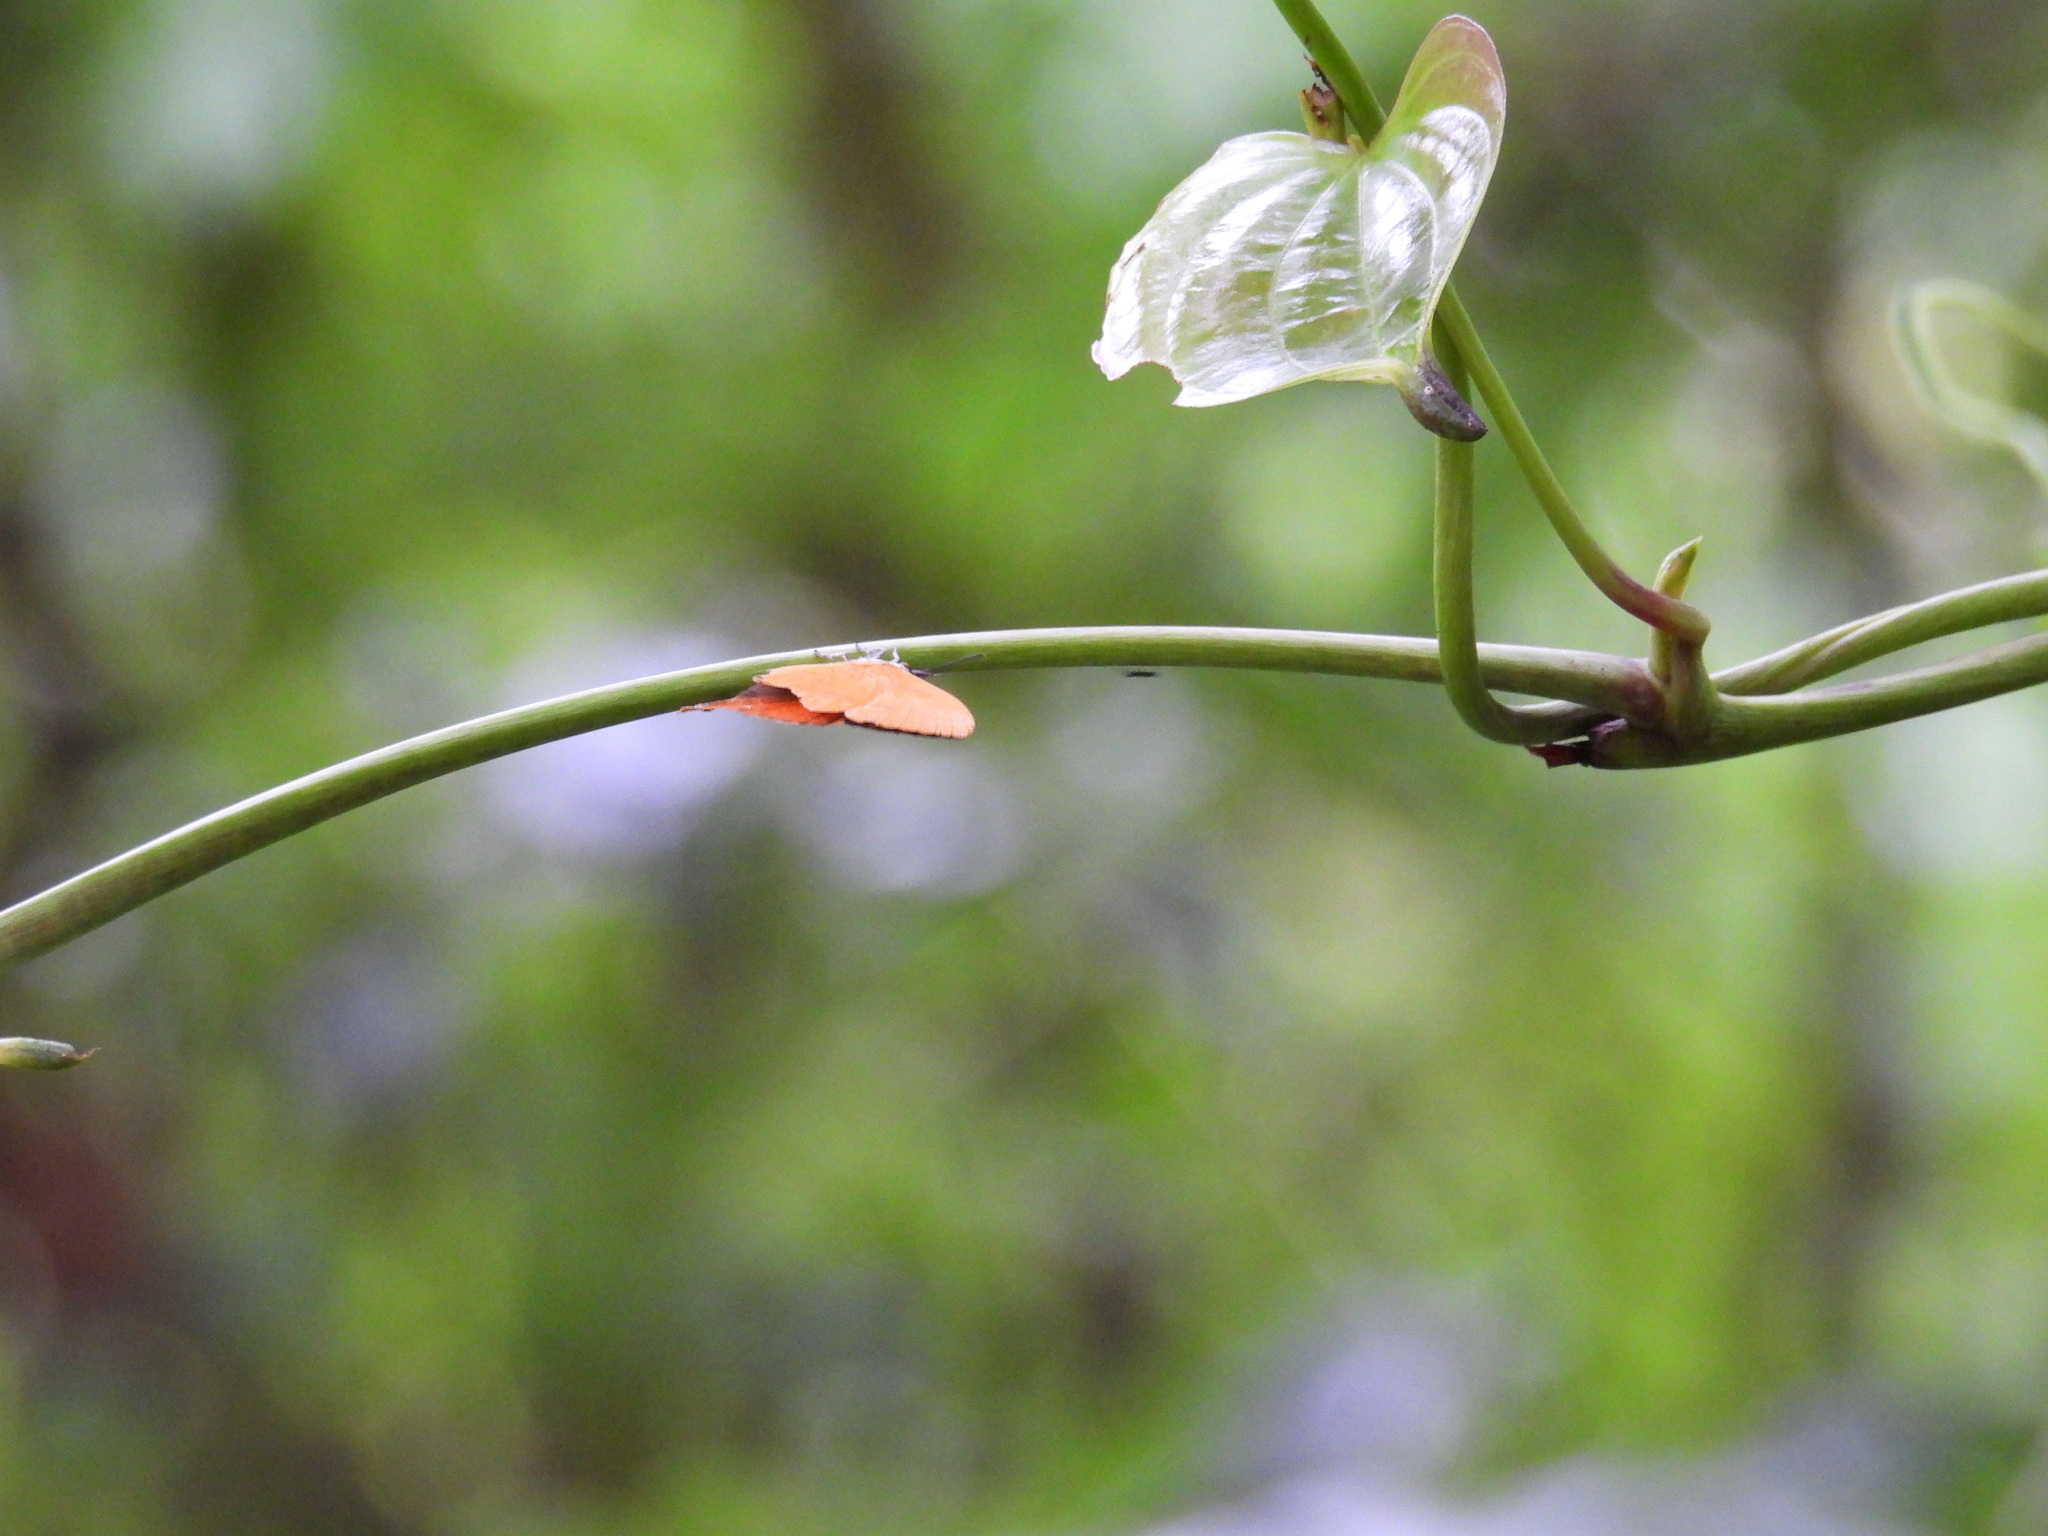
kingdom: Animalia
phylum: Arthropoda
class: Insecta
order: Lepidoptera
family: Lycaenidae
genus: Loxura
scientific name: Loxura atymnus
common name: Common yamfly
